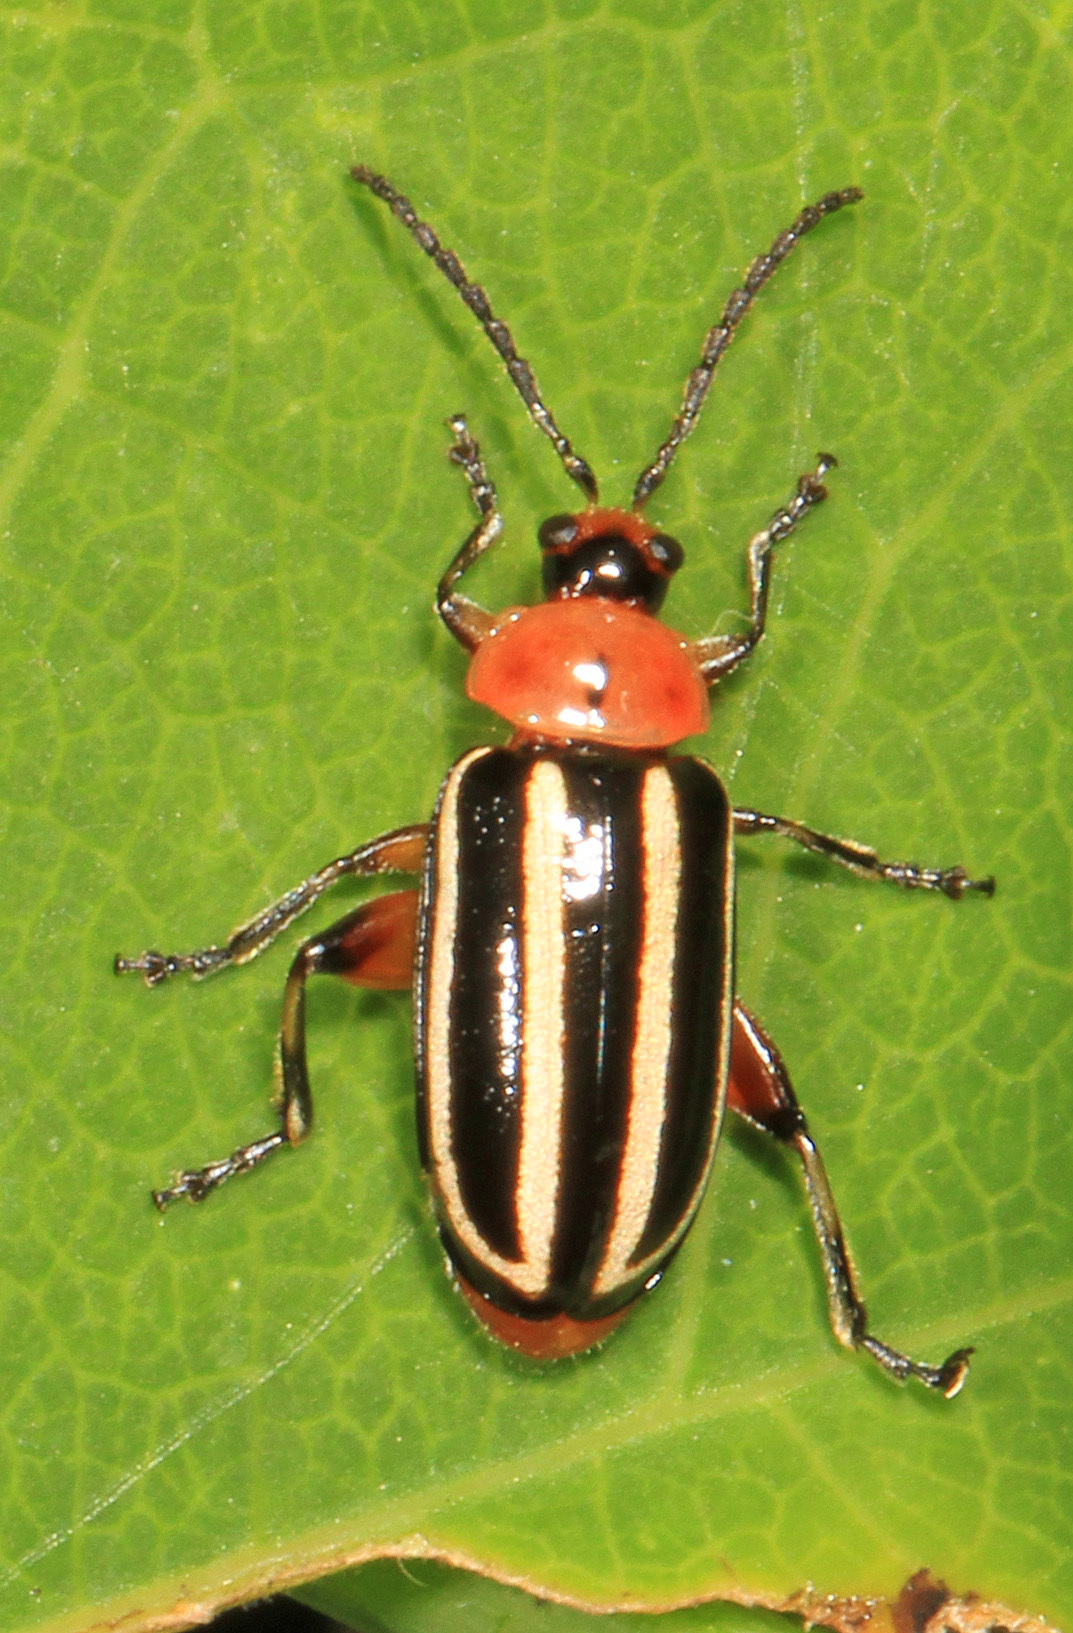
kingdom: Animalia
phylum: Arthropoda
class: Insecta
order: Coleoptera
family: Chrysomelidae
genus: Disonycha
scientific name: Disonycha glabrata
